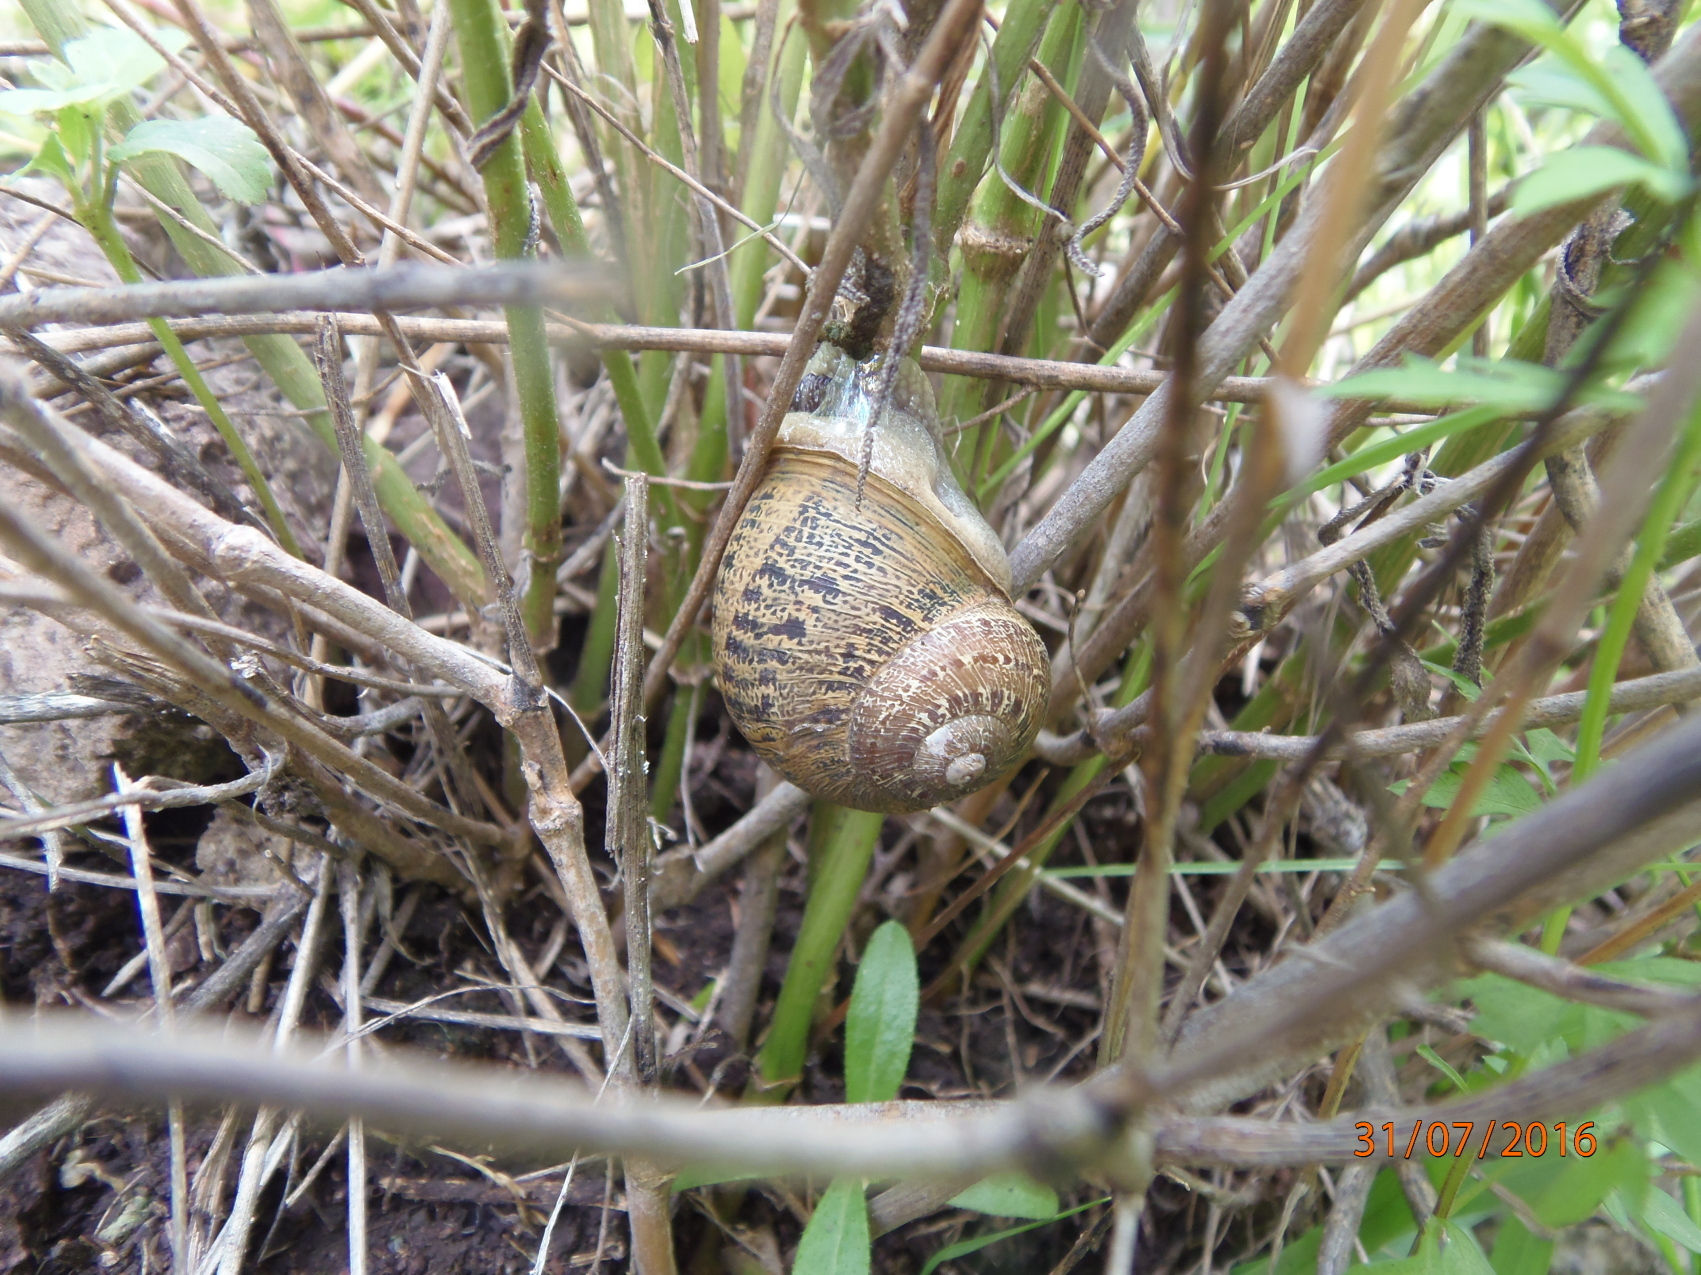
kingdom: Animalia
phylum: Mollusca
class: Gastropoda
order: Stylommatophora
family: Helicidae
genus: Cornu
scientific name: Cornu aspersum
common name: Brown garden snail
